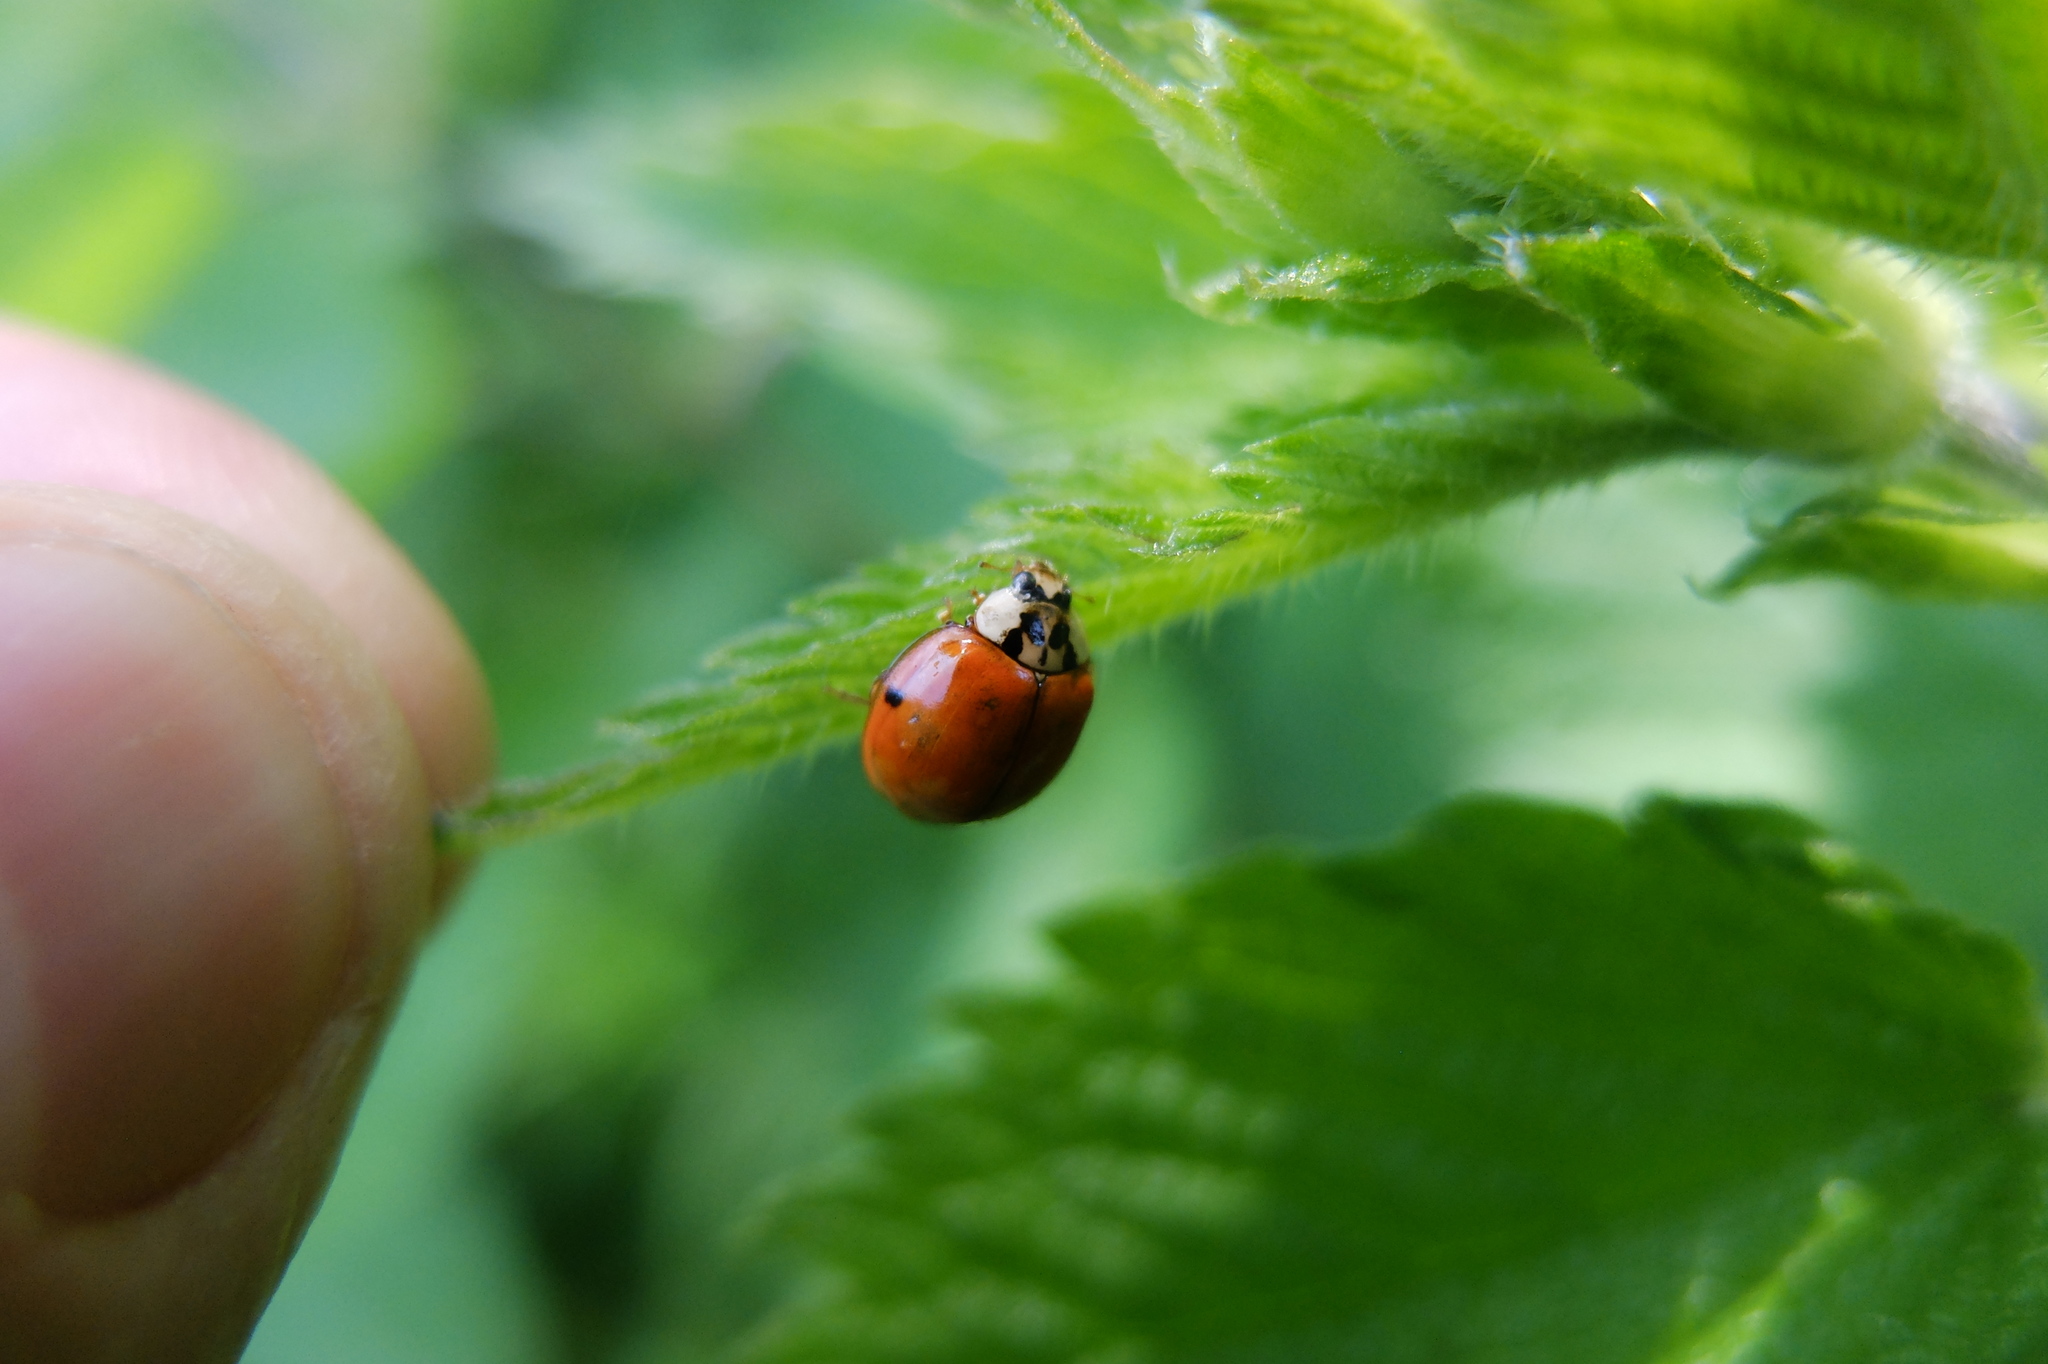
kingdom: Animalia
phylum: Arthropoda
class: Insecta
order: Coleoptera
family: Coccinellidae
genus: Harmonia
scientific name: Harmonia axyridis
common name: Harlequin ladybird
